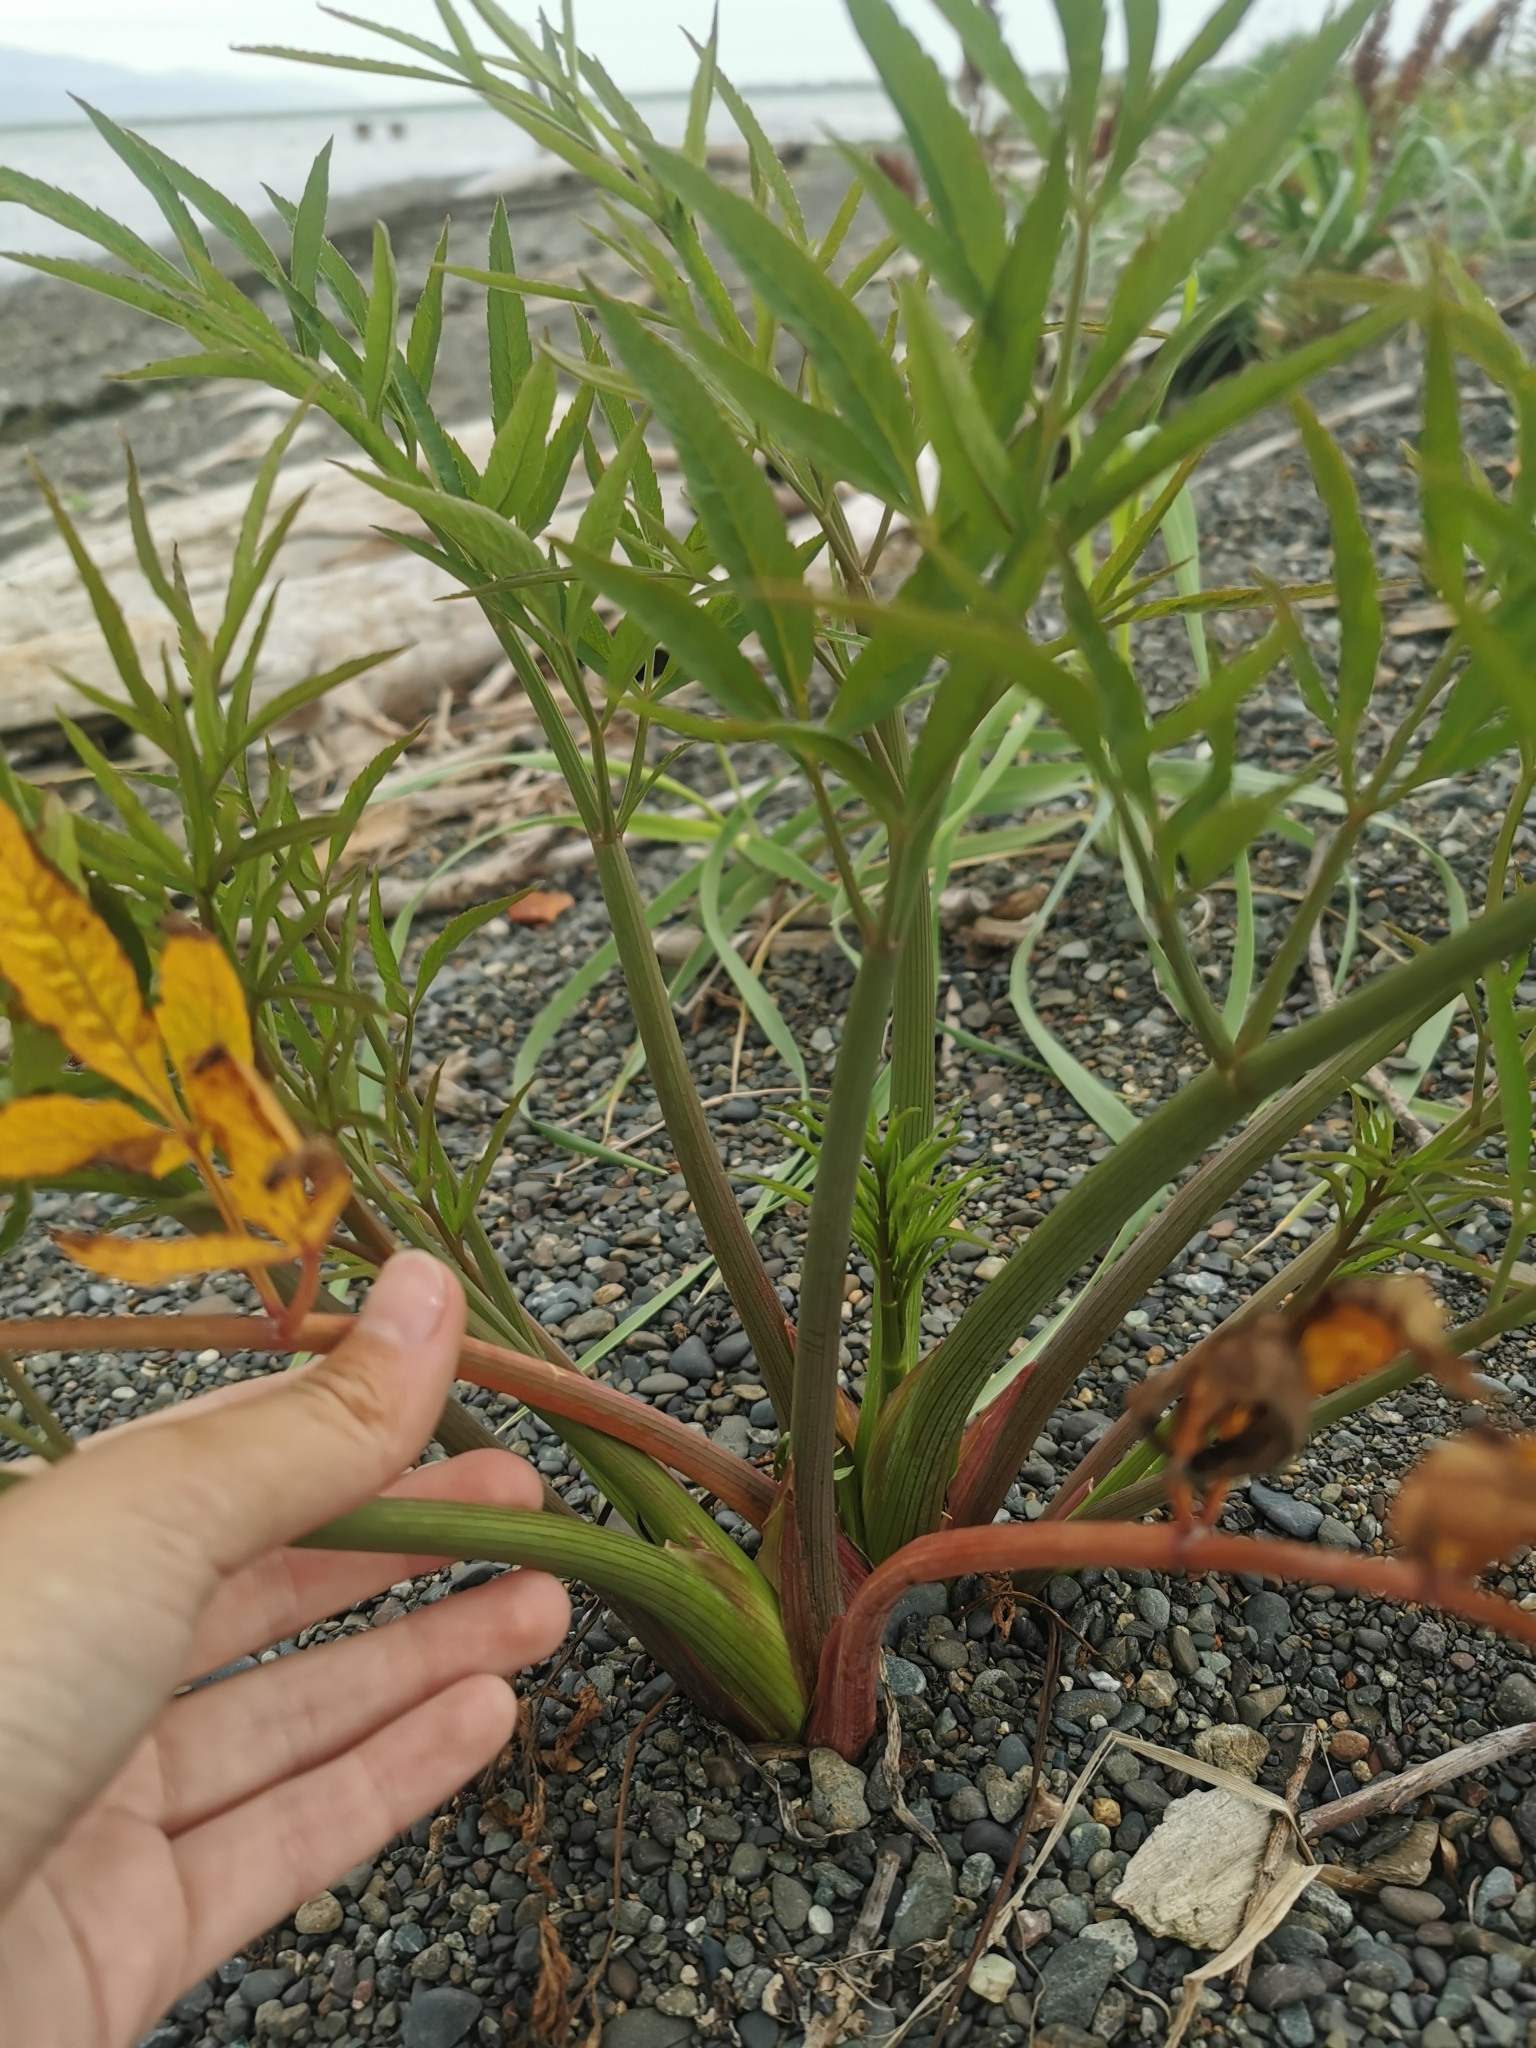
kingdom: Plantae
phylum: Tracheophyta
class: Magnoliopsida
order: Apiales
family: Apiaceae
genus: Cicuta
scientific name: Cicuta virosa
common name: Cowbane
